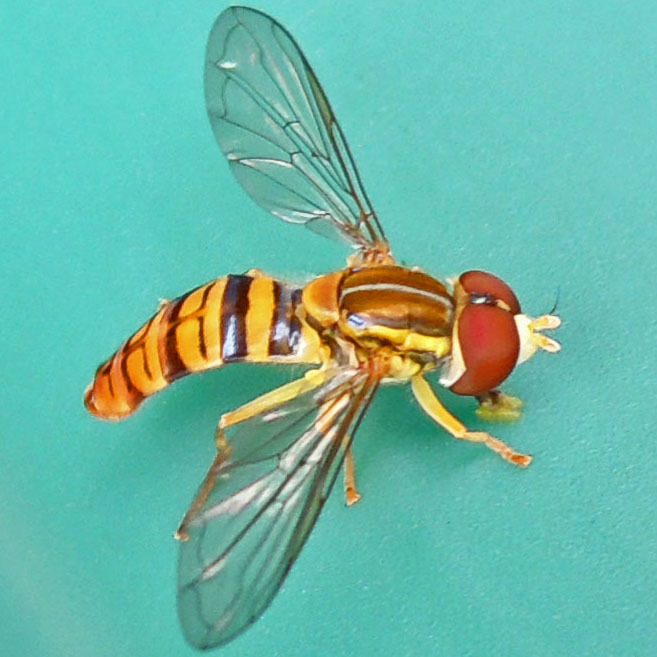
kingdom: Animalia
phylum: Arthropoda
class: Insecta
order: Diptera
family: Syrphidae
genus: Toxomerus
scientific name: Toxomerus politus
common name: Maize calligrapher
